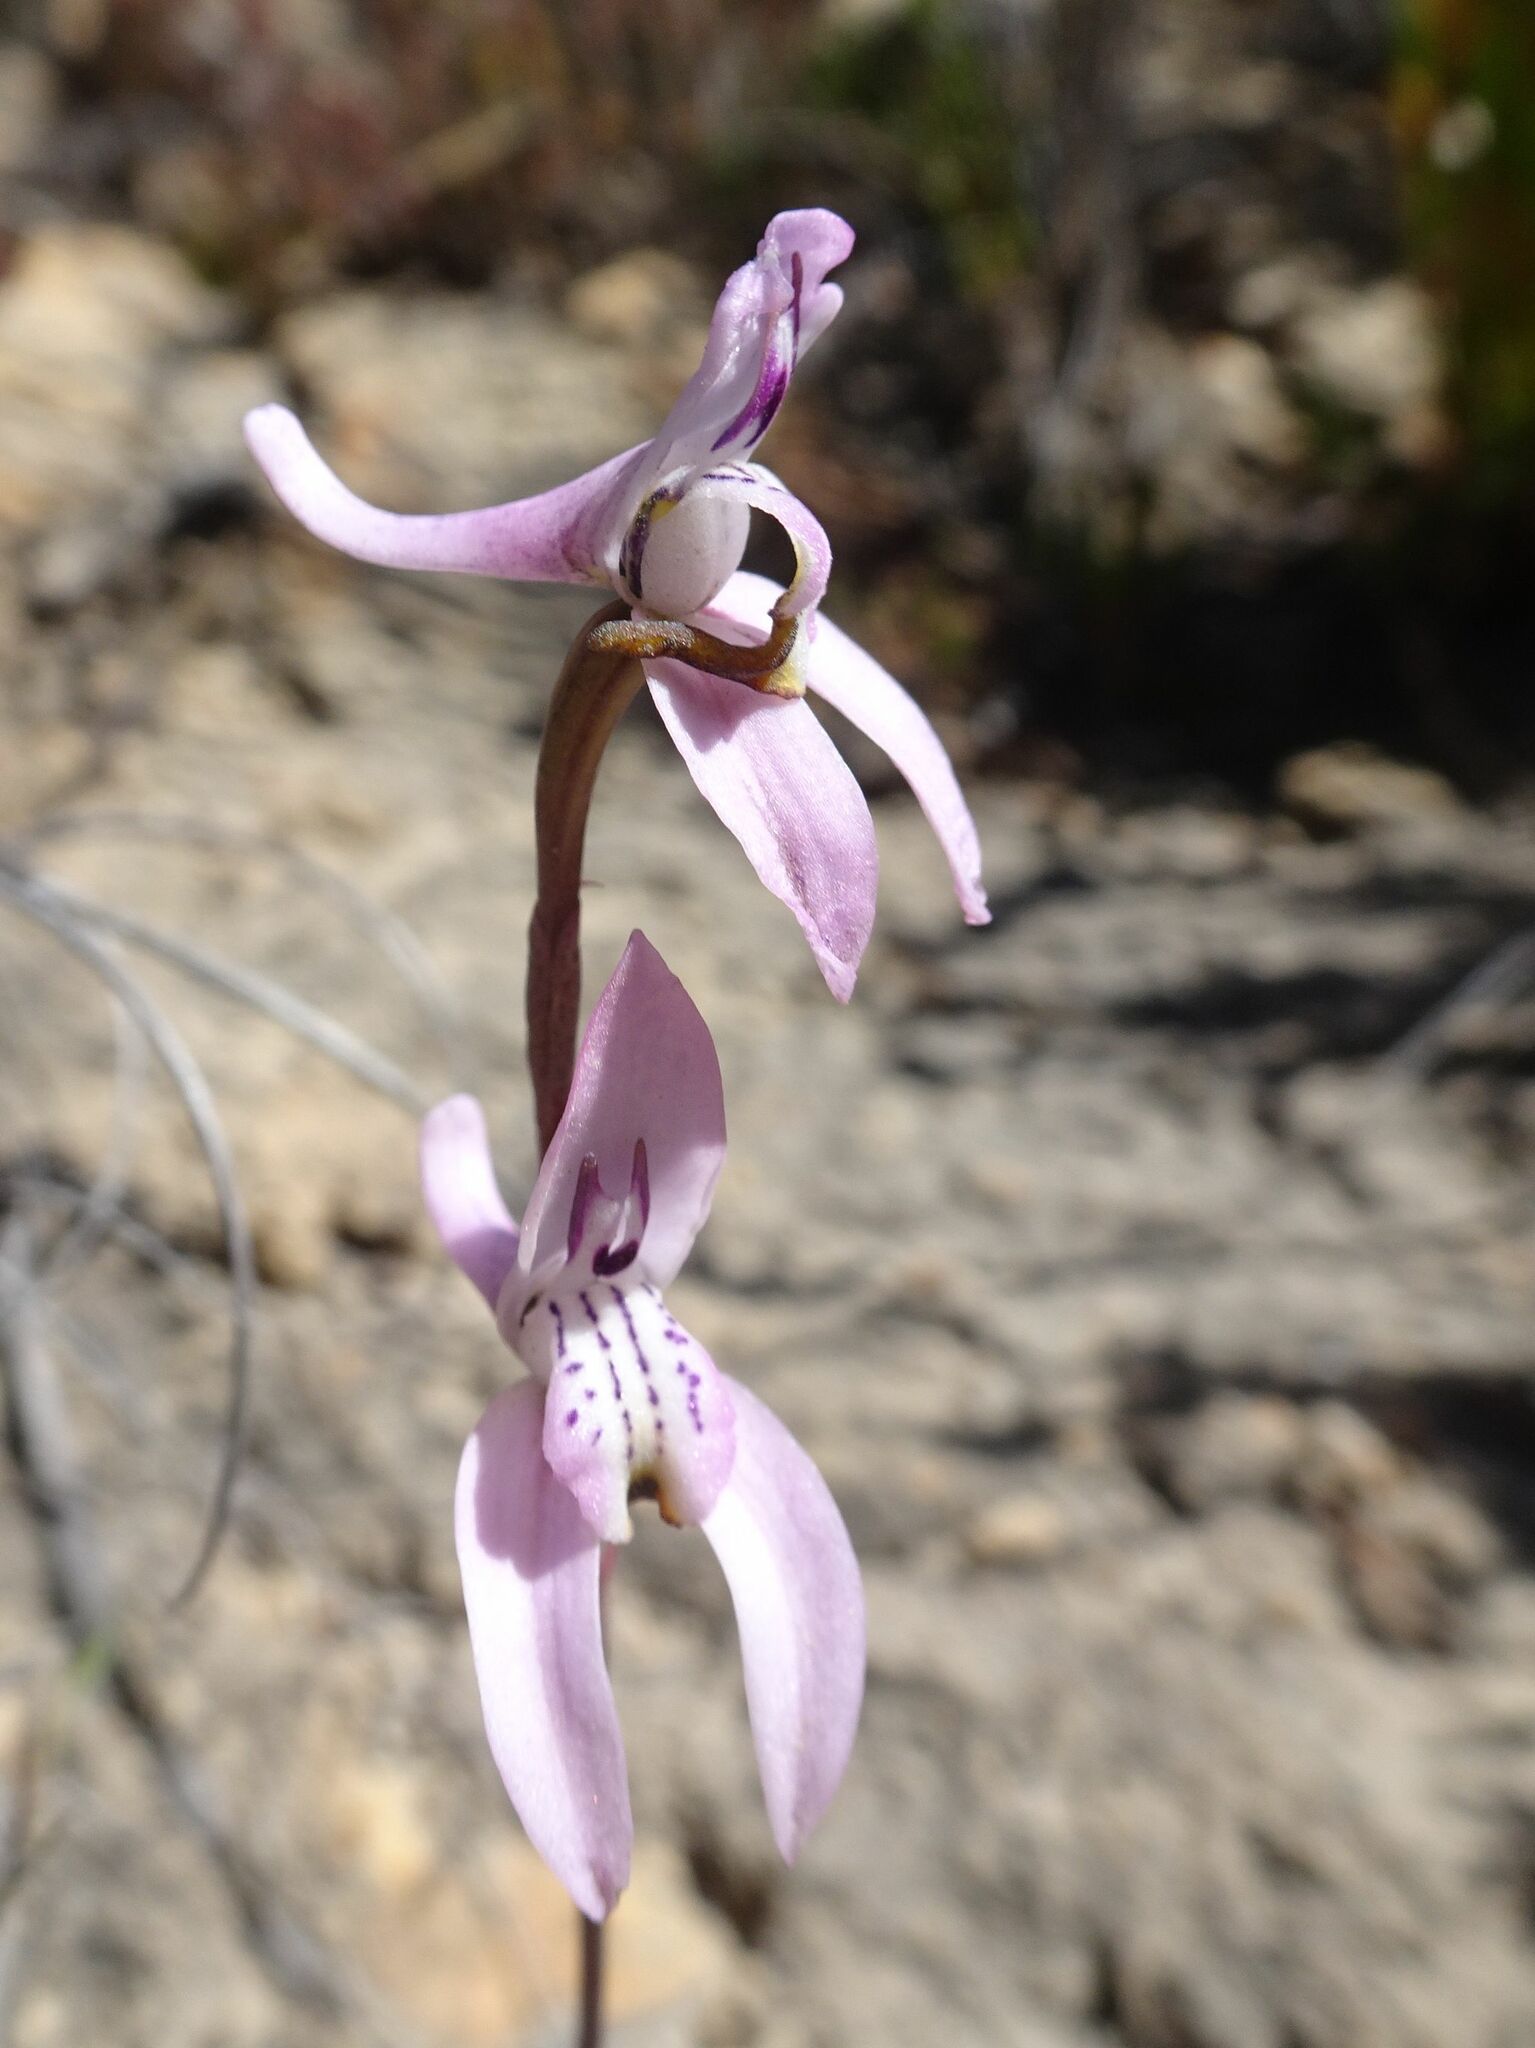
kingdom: Plantae
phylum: Tracheophyta
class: Liliopsida
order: Asparagales
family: Orchidaceae
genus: Disa
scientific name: Disa bifida
